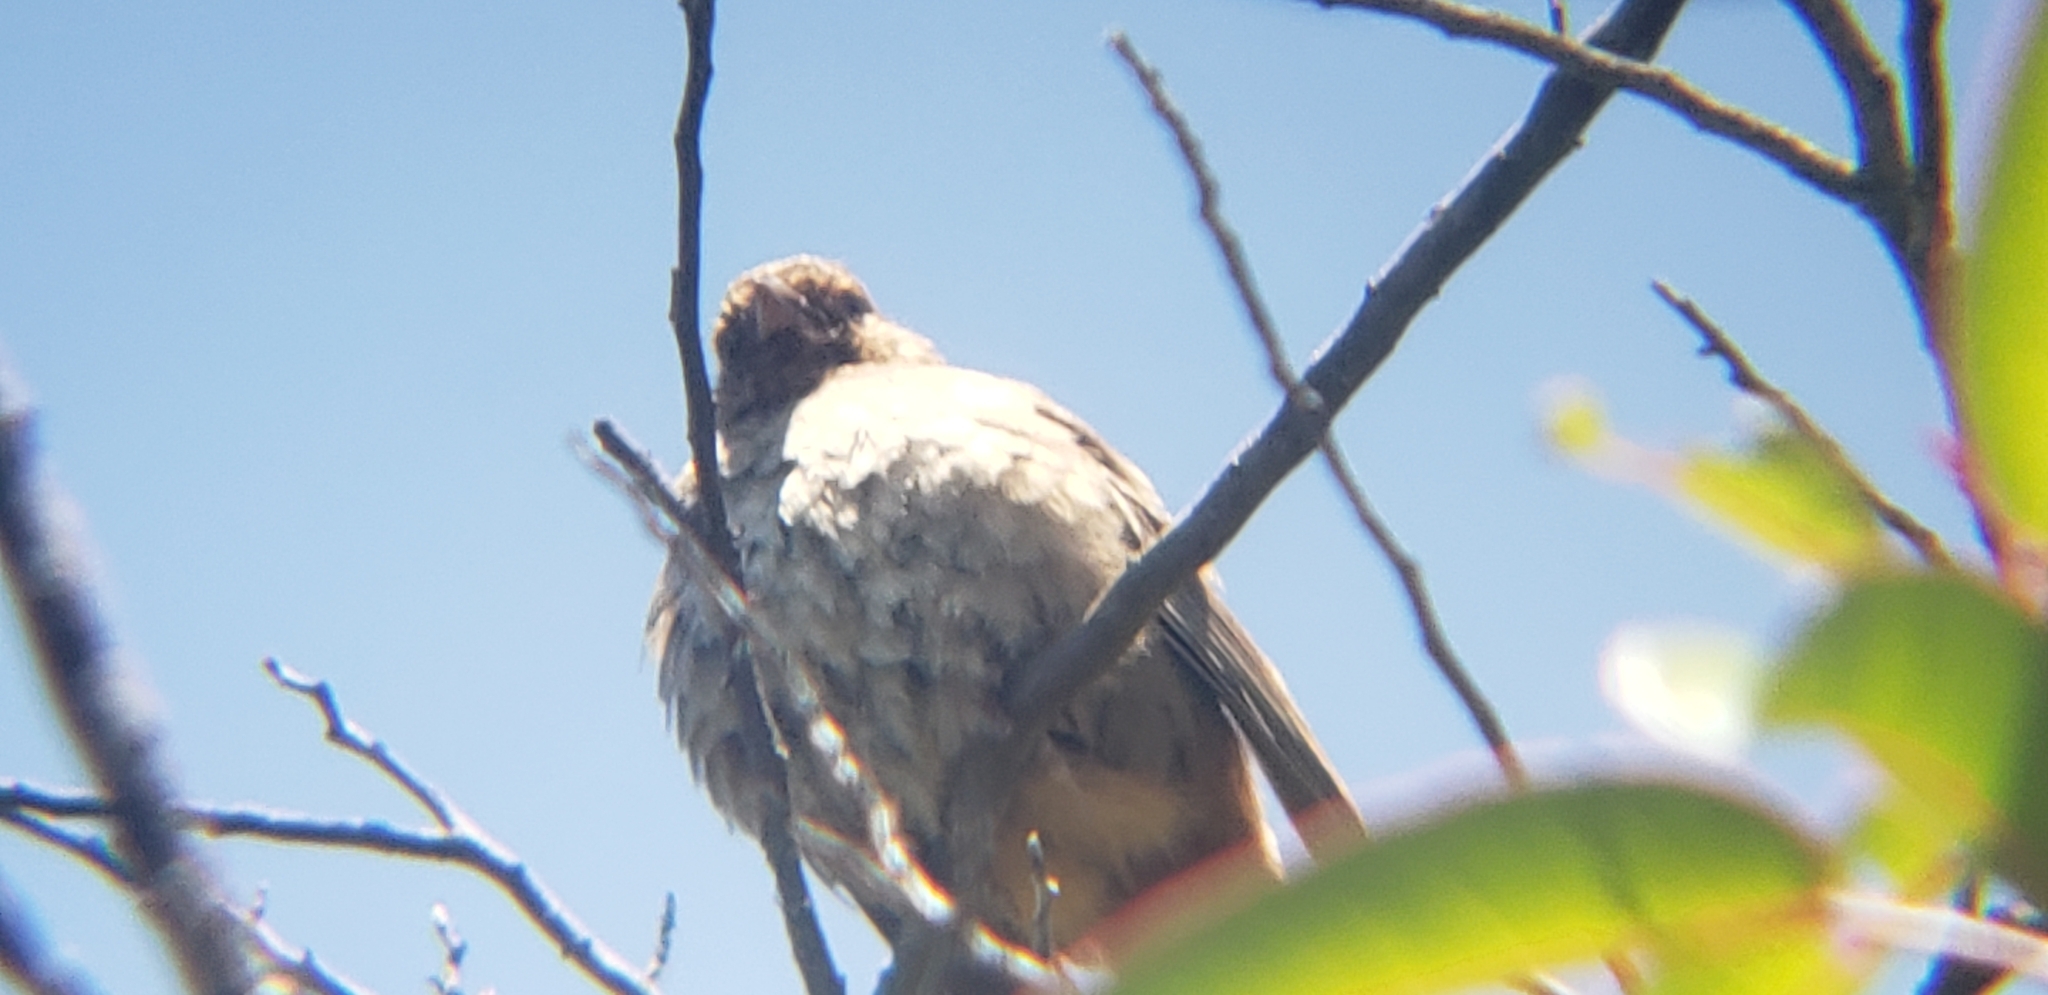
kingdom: Animalia
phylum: Chordata
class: Aves
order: Passeriformes
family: Passerellidae
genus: Melozone
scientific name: Melozone crissalis
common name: California towhee
